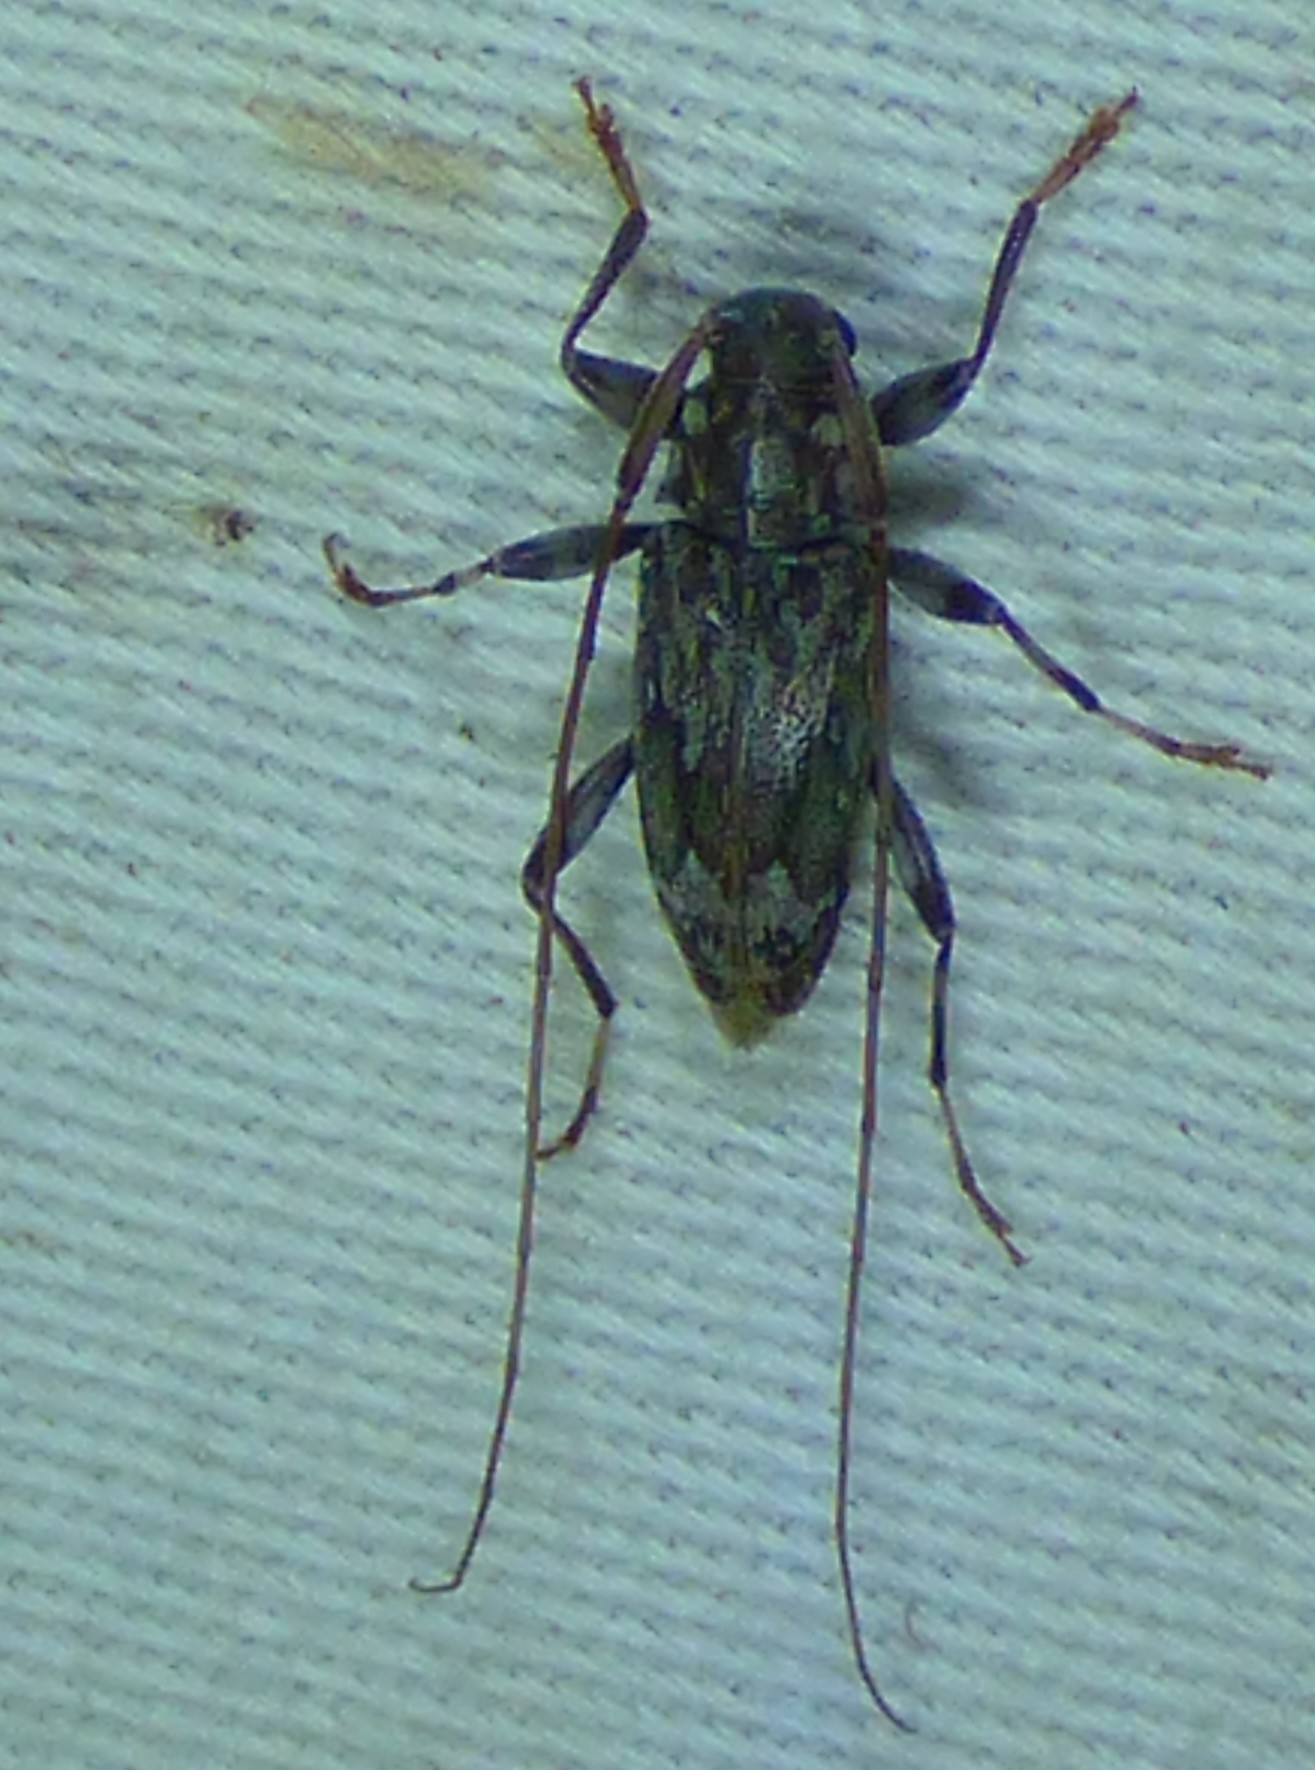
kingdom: Animalia
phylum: Arthropoda
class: Insecta
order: Coleoptera
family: Cerambycidae
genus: Lepturges
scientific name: Lepturges confluens
